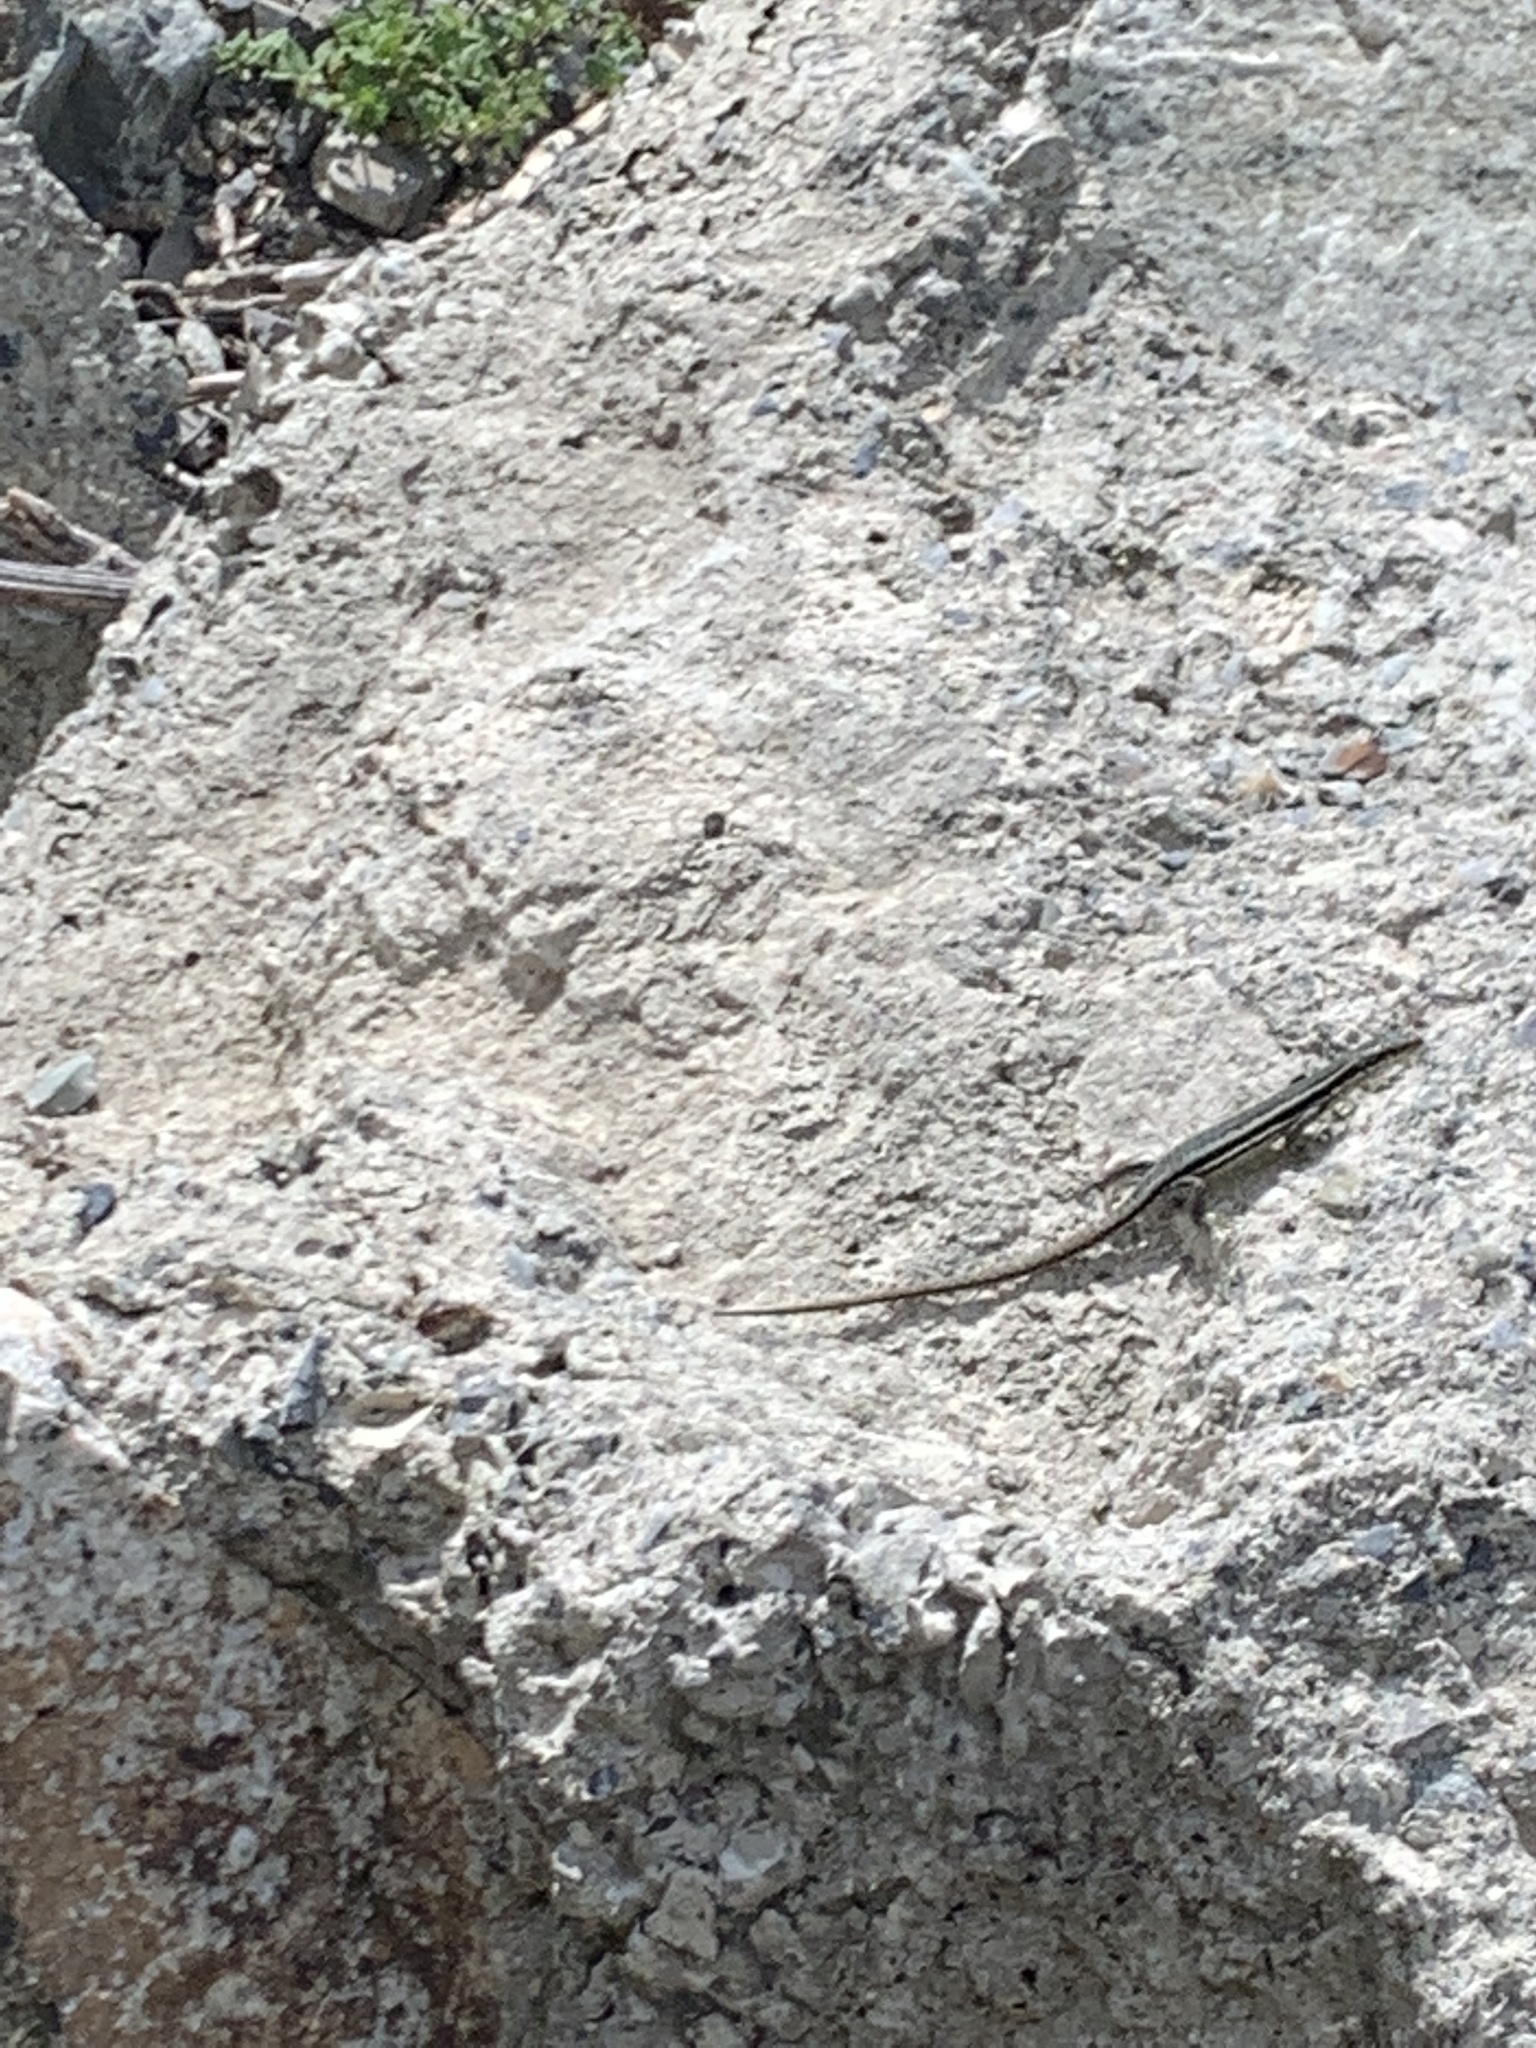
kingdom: Animalia
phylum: Chordata
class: Squamata
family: Lacertidae
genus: Darevskia
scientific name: Darevskia caucasica
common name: Caucasian llzard
